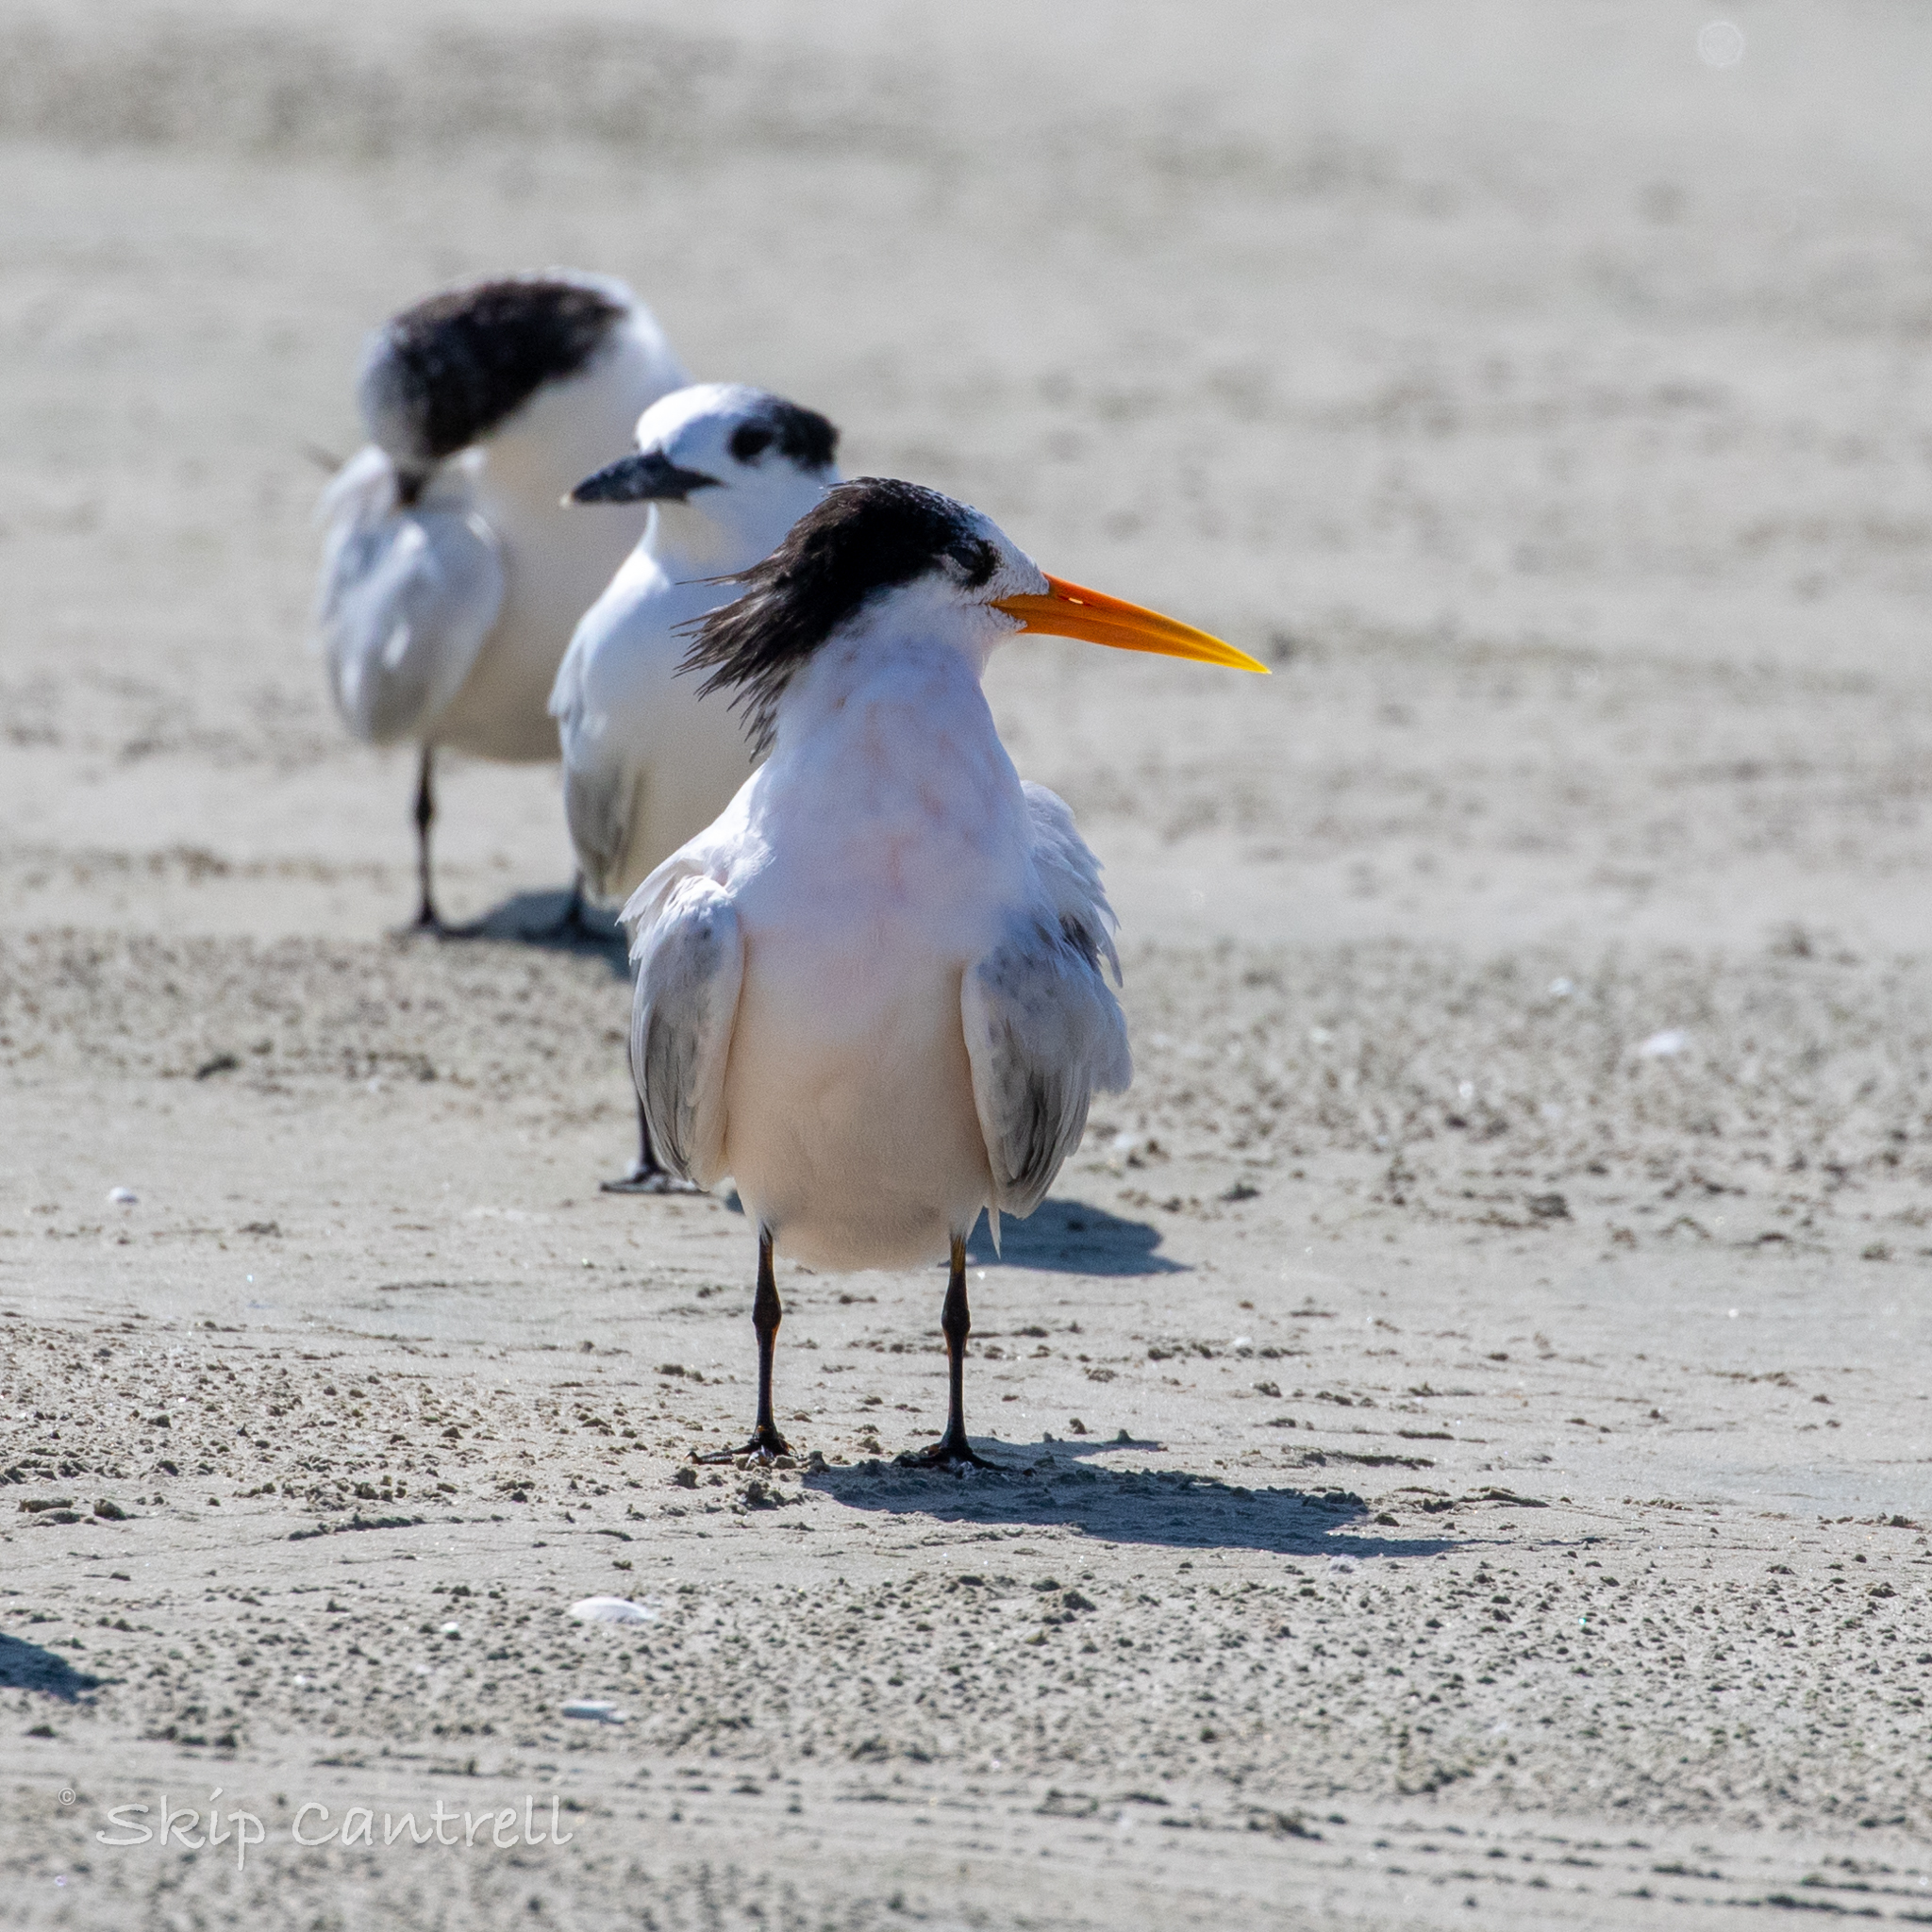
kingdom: Animalia
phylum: Chordata
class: Aves
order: Charadriiformes
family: Laridae
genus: Thalasseus
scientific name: Thalasseus elegans
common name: Elegant tern
